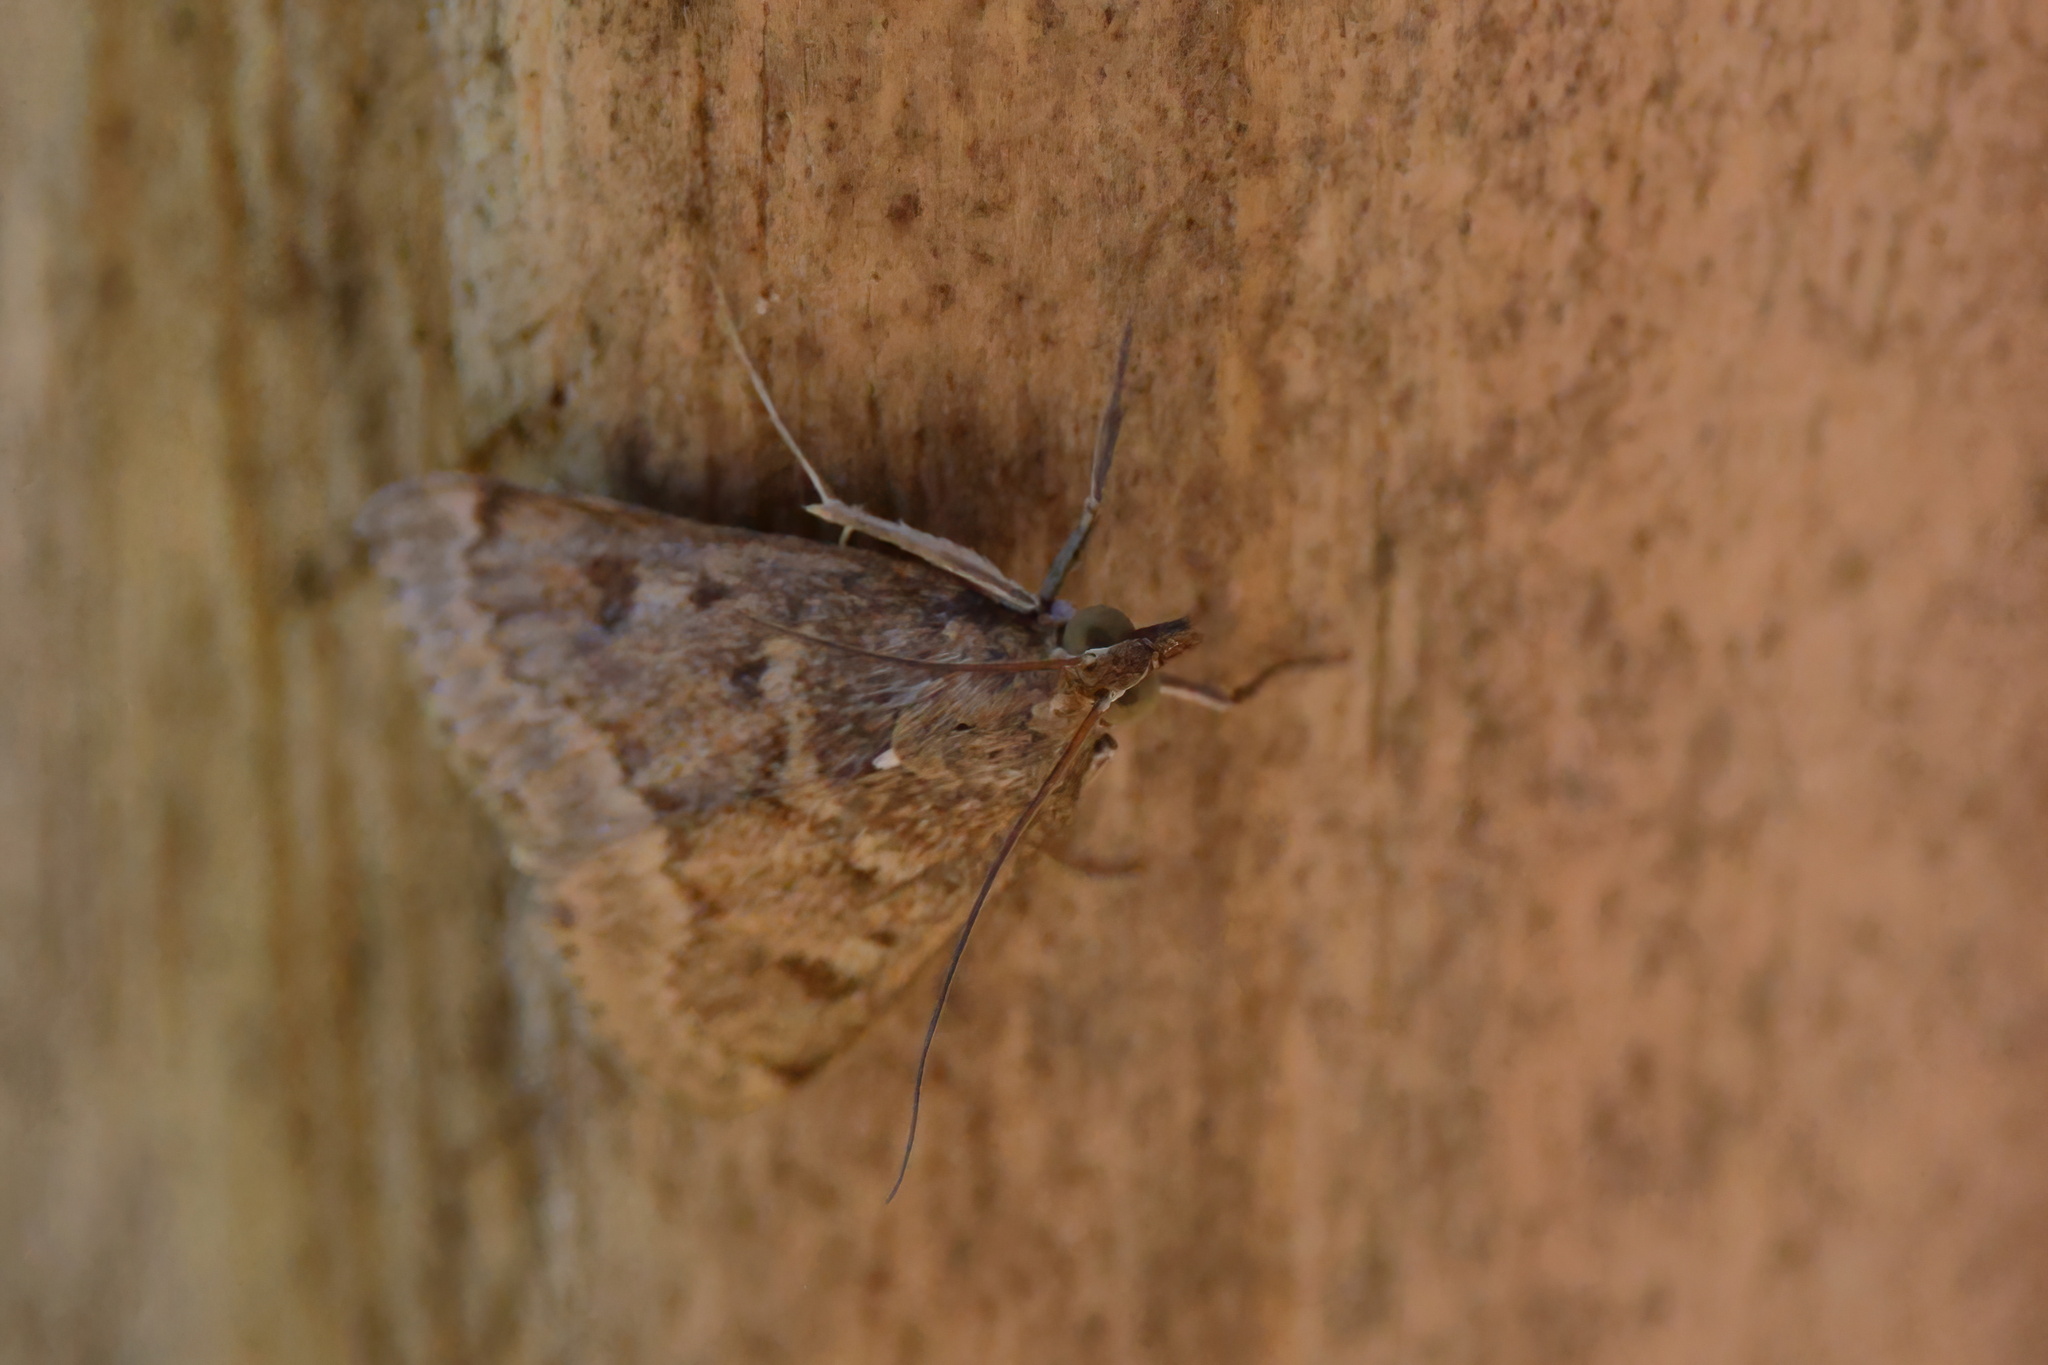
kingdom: Animalia
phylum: Arthropoda
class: Insecta
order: Lepidoptera
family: Crambidae
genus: Achyra
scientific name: Achyra rantalis
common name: Garden webworm
